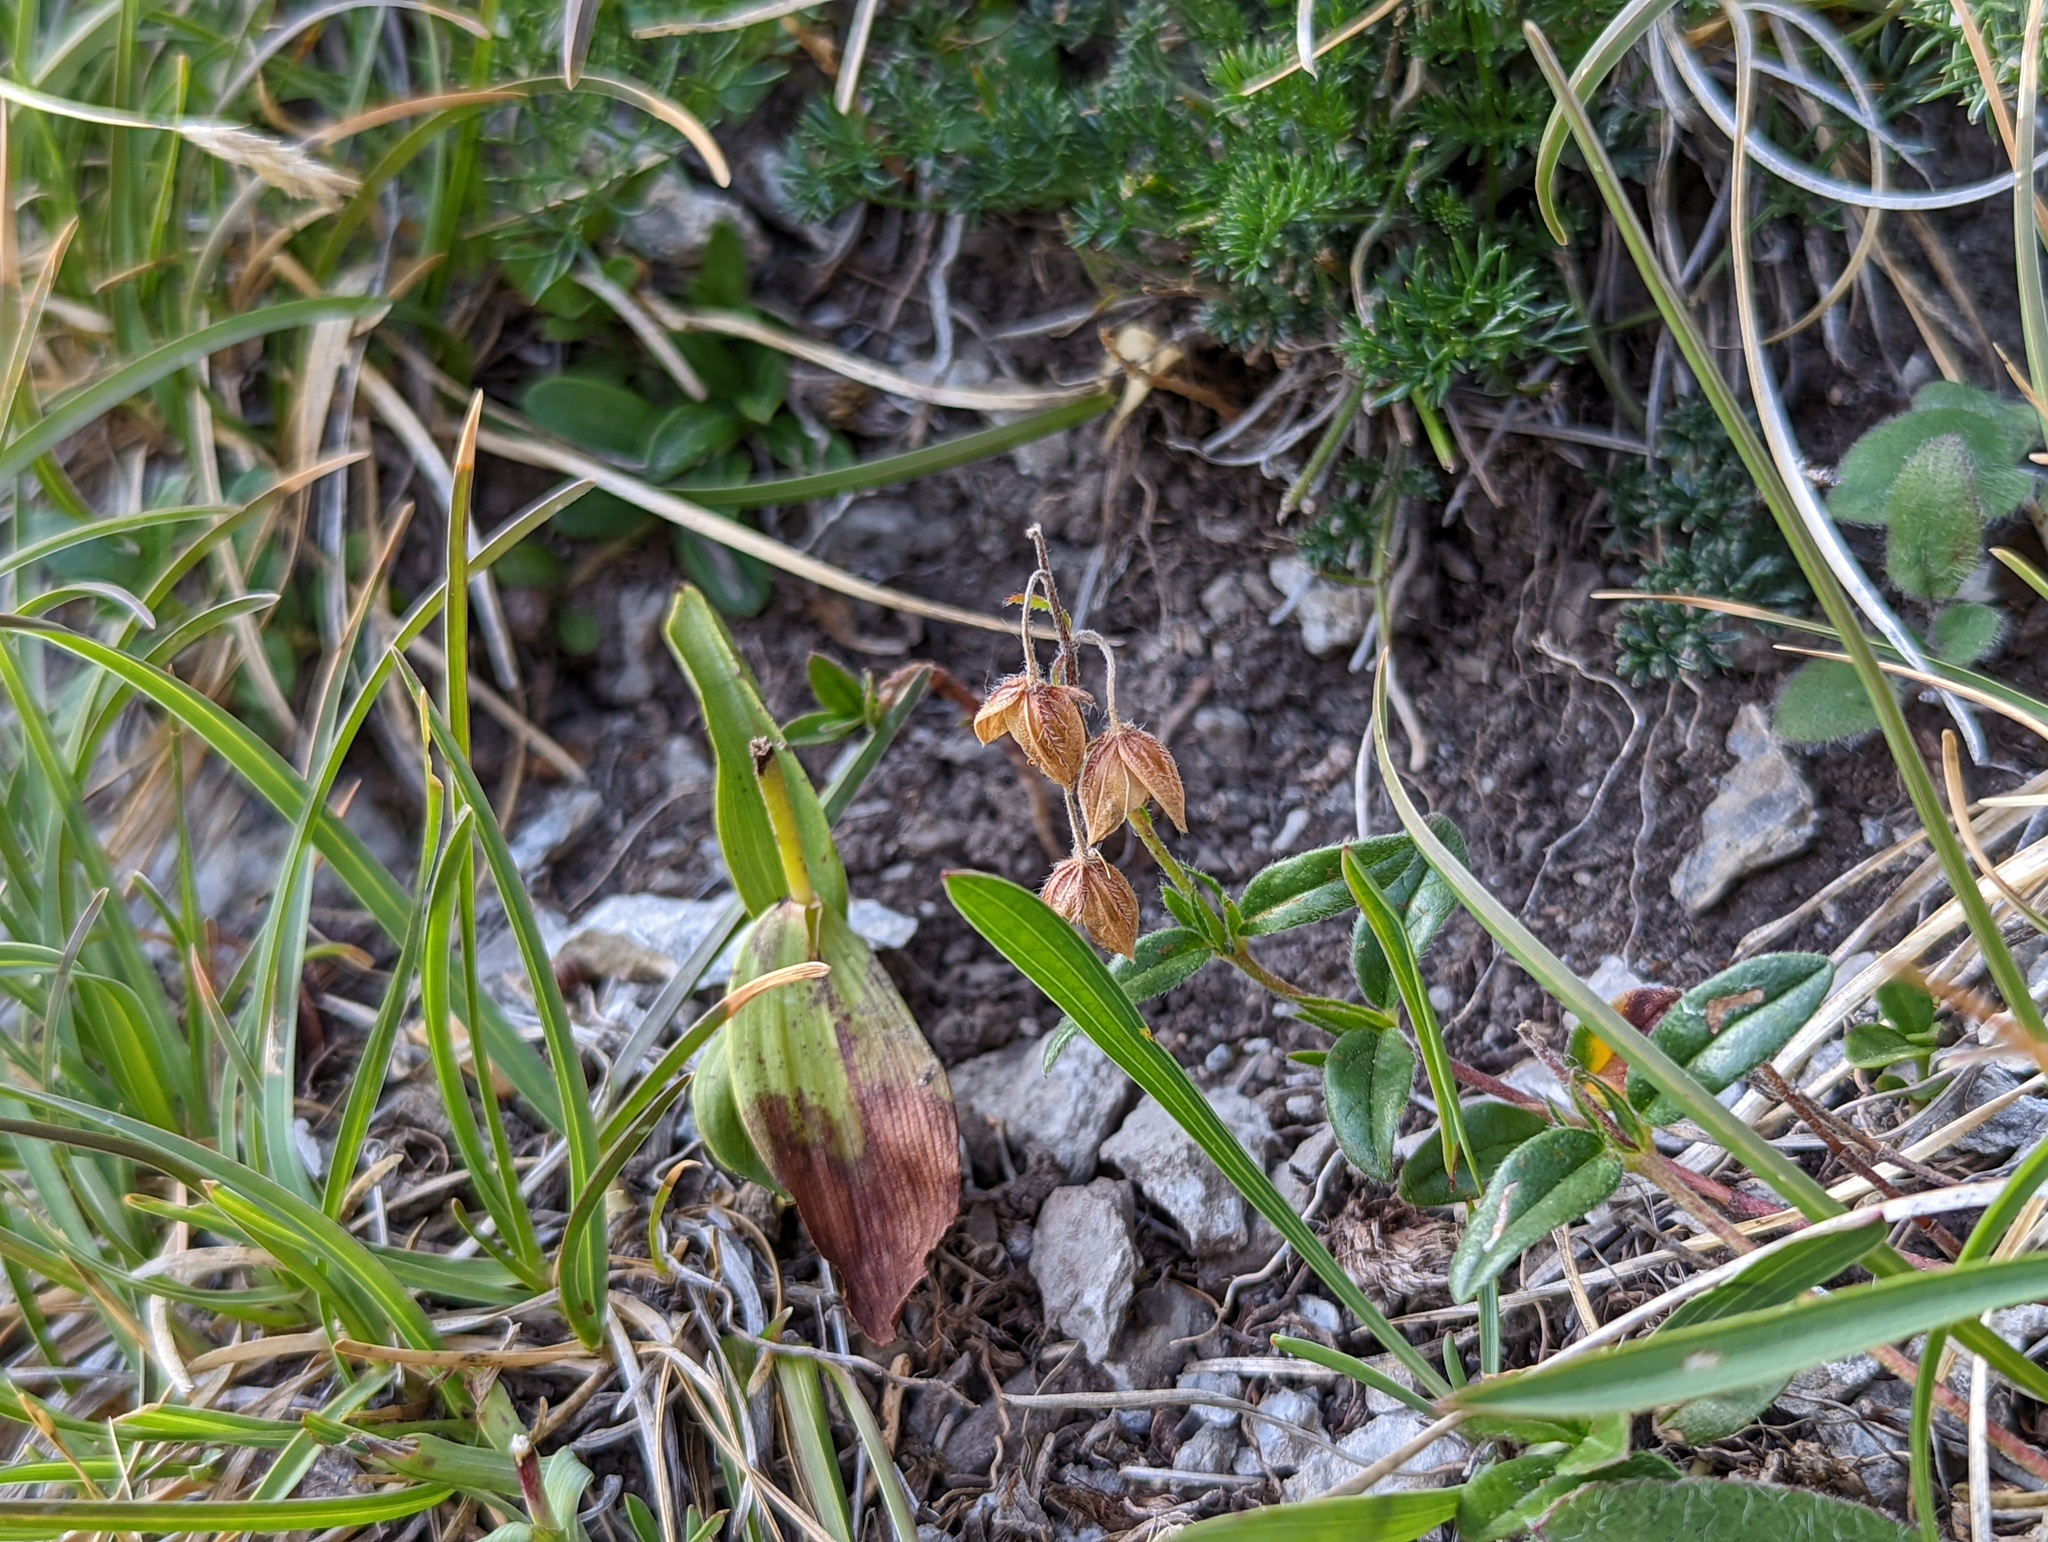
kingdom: Plantae
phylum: Tracheophyta
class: Magnoliopsida
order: Malvales
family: Cistaceae
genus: Helianthemum
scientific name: Helianthemum nummularium
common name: Common rock-rose
